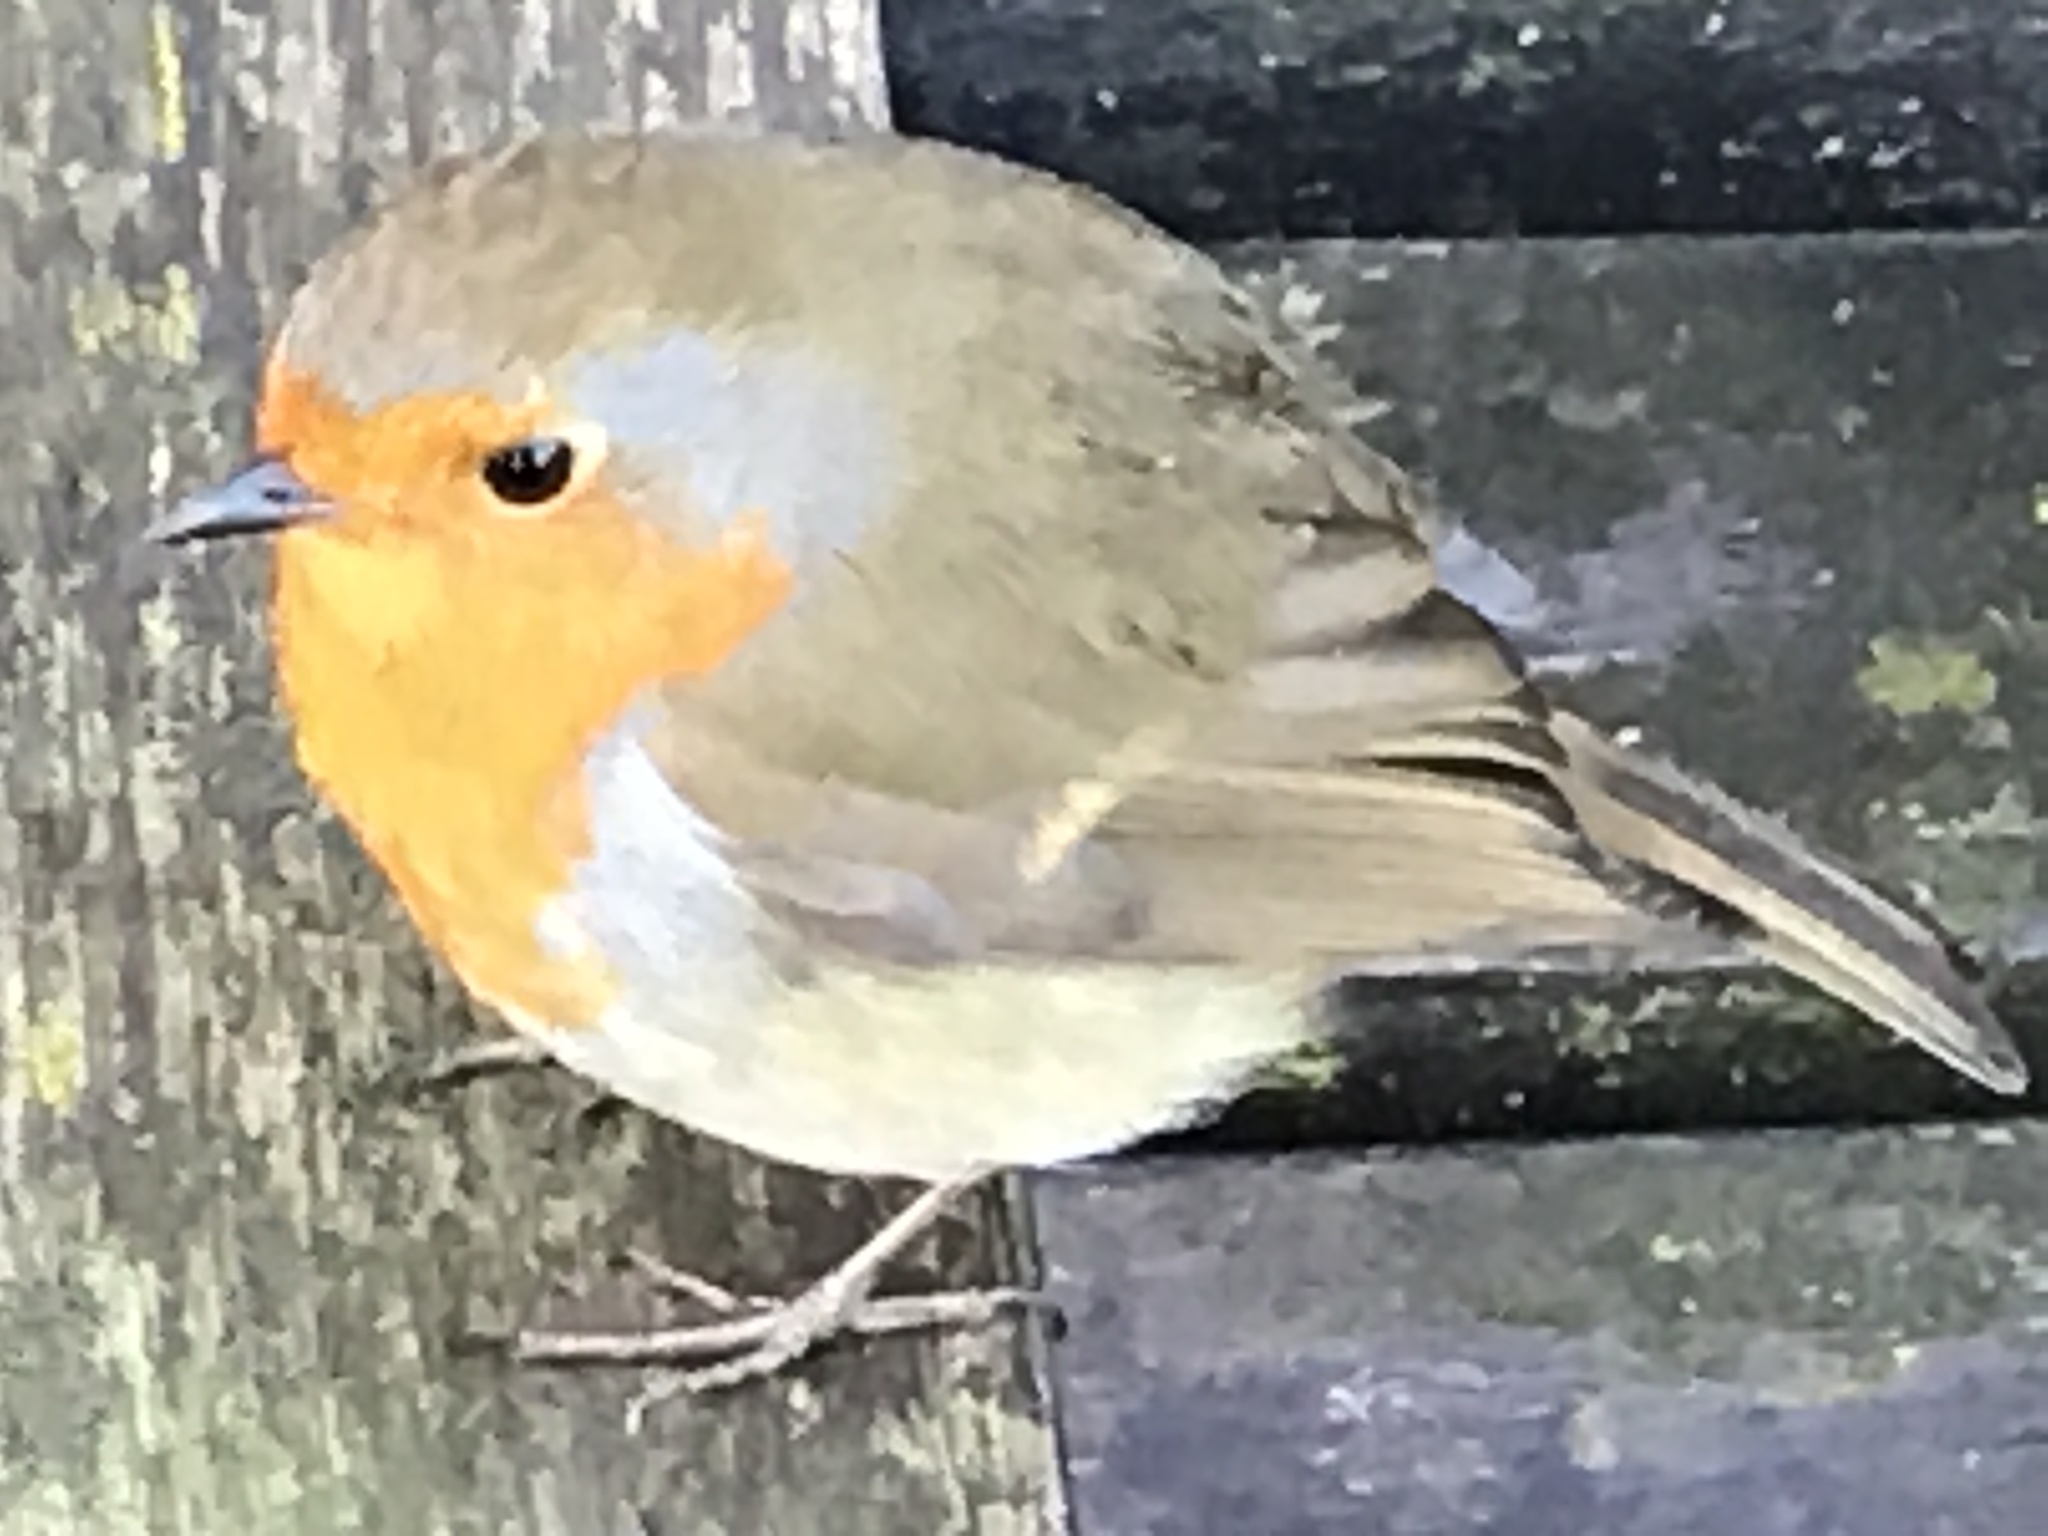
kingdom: Animalia
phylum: Chordata
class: Aves
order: Passeriformes
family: Muscicapidae
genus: Erithacus
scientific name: Erithacus rubecula
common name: European robin
